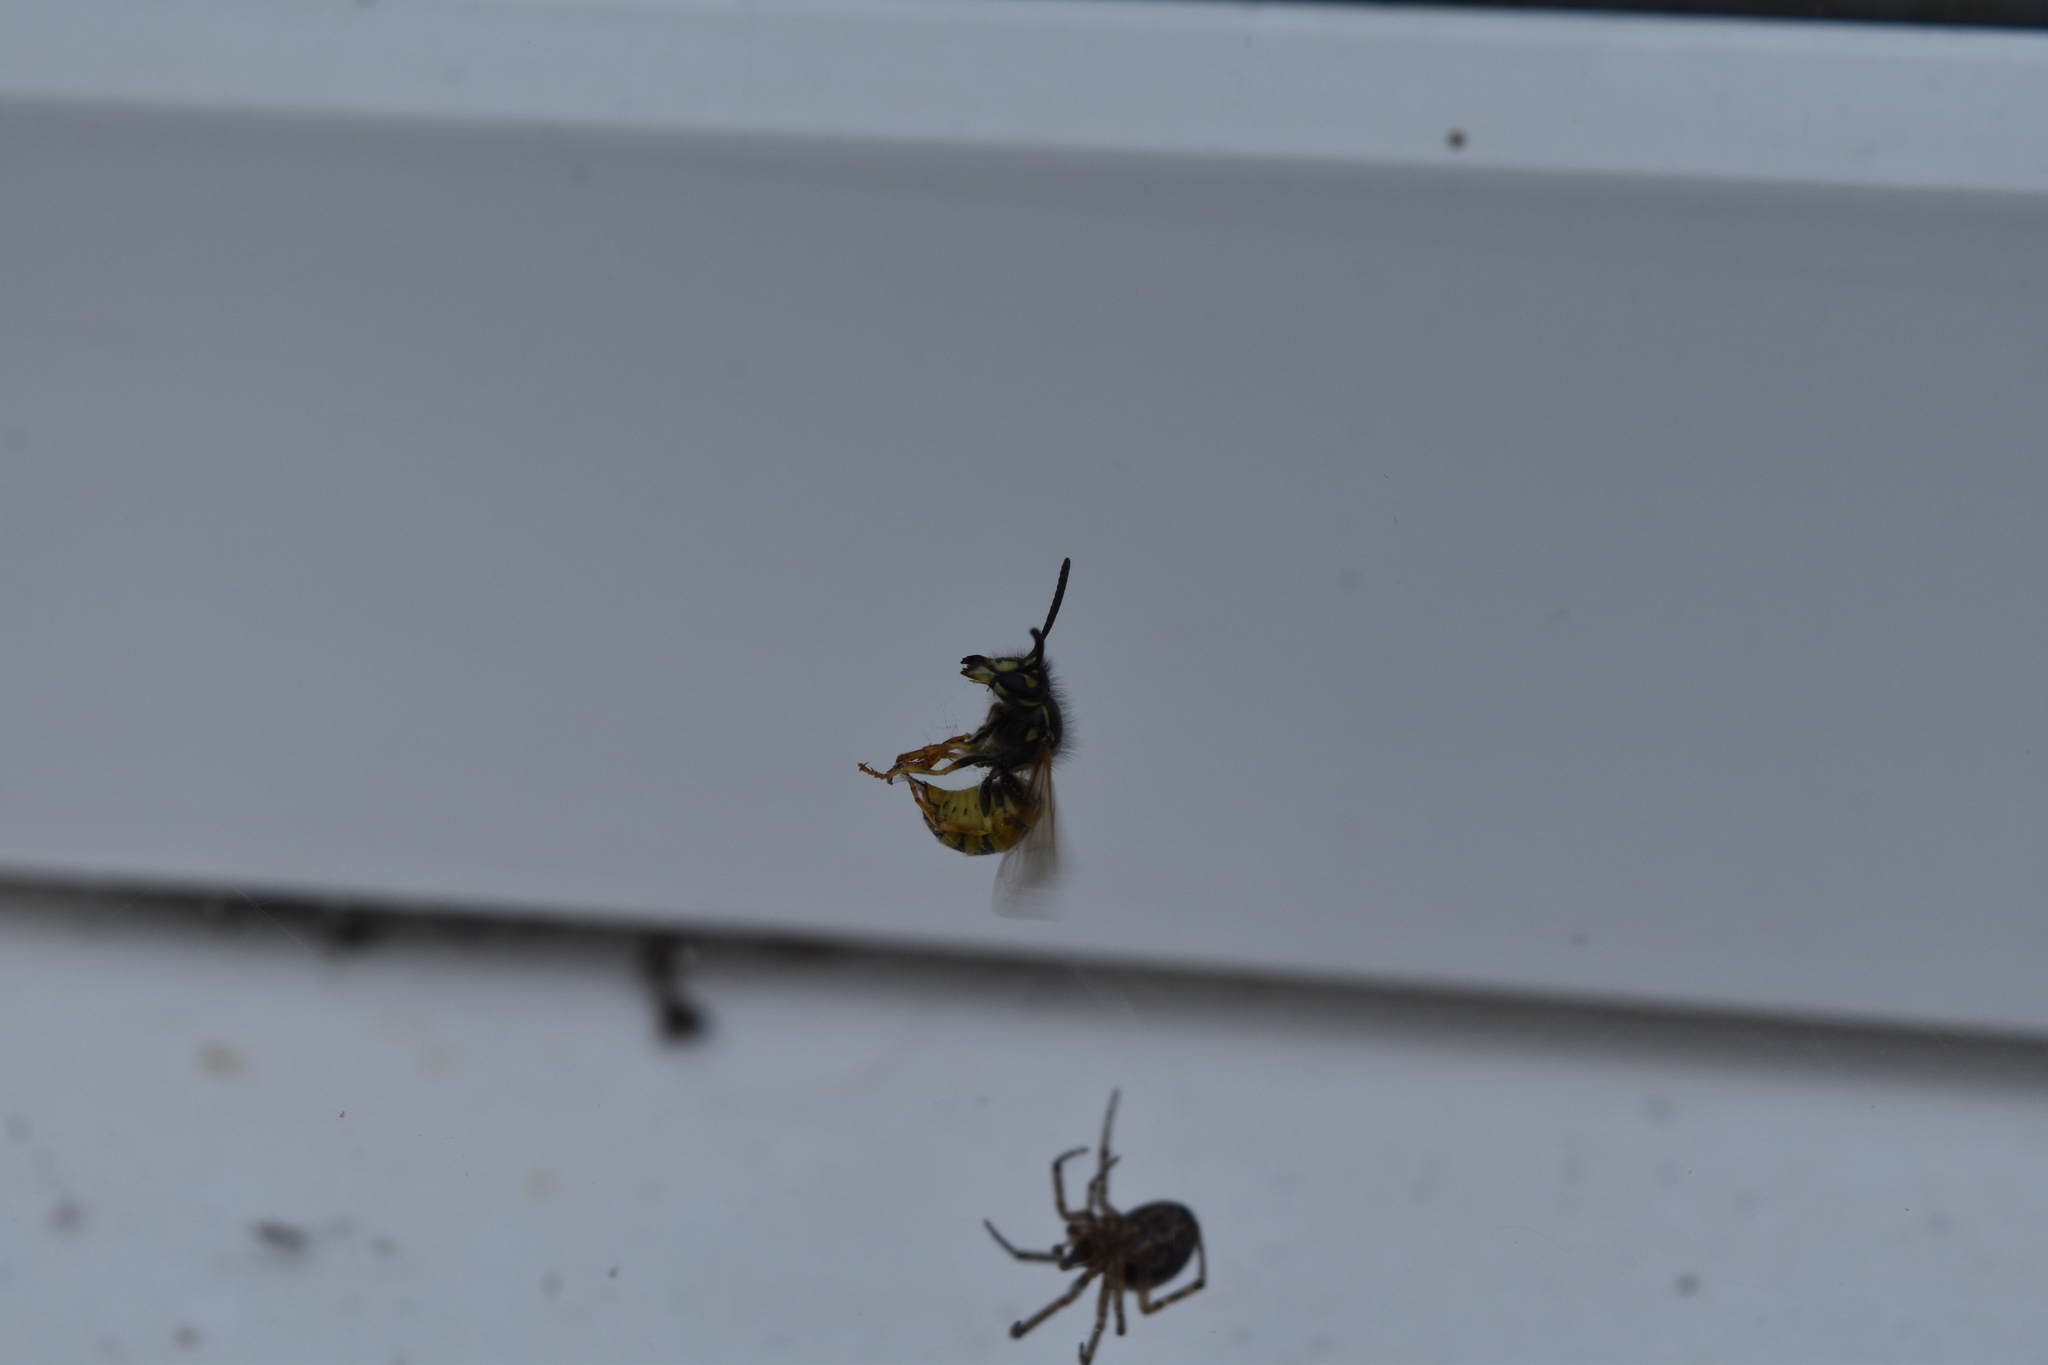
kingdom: Animalia
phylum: Arthropoda
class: Insecta
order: Hymenoptera
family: Vespidae
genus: Vespula
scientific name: Vespula vulgaris
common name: Common wasp
